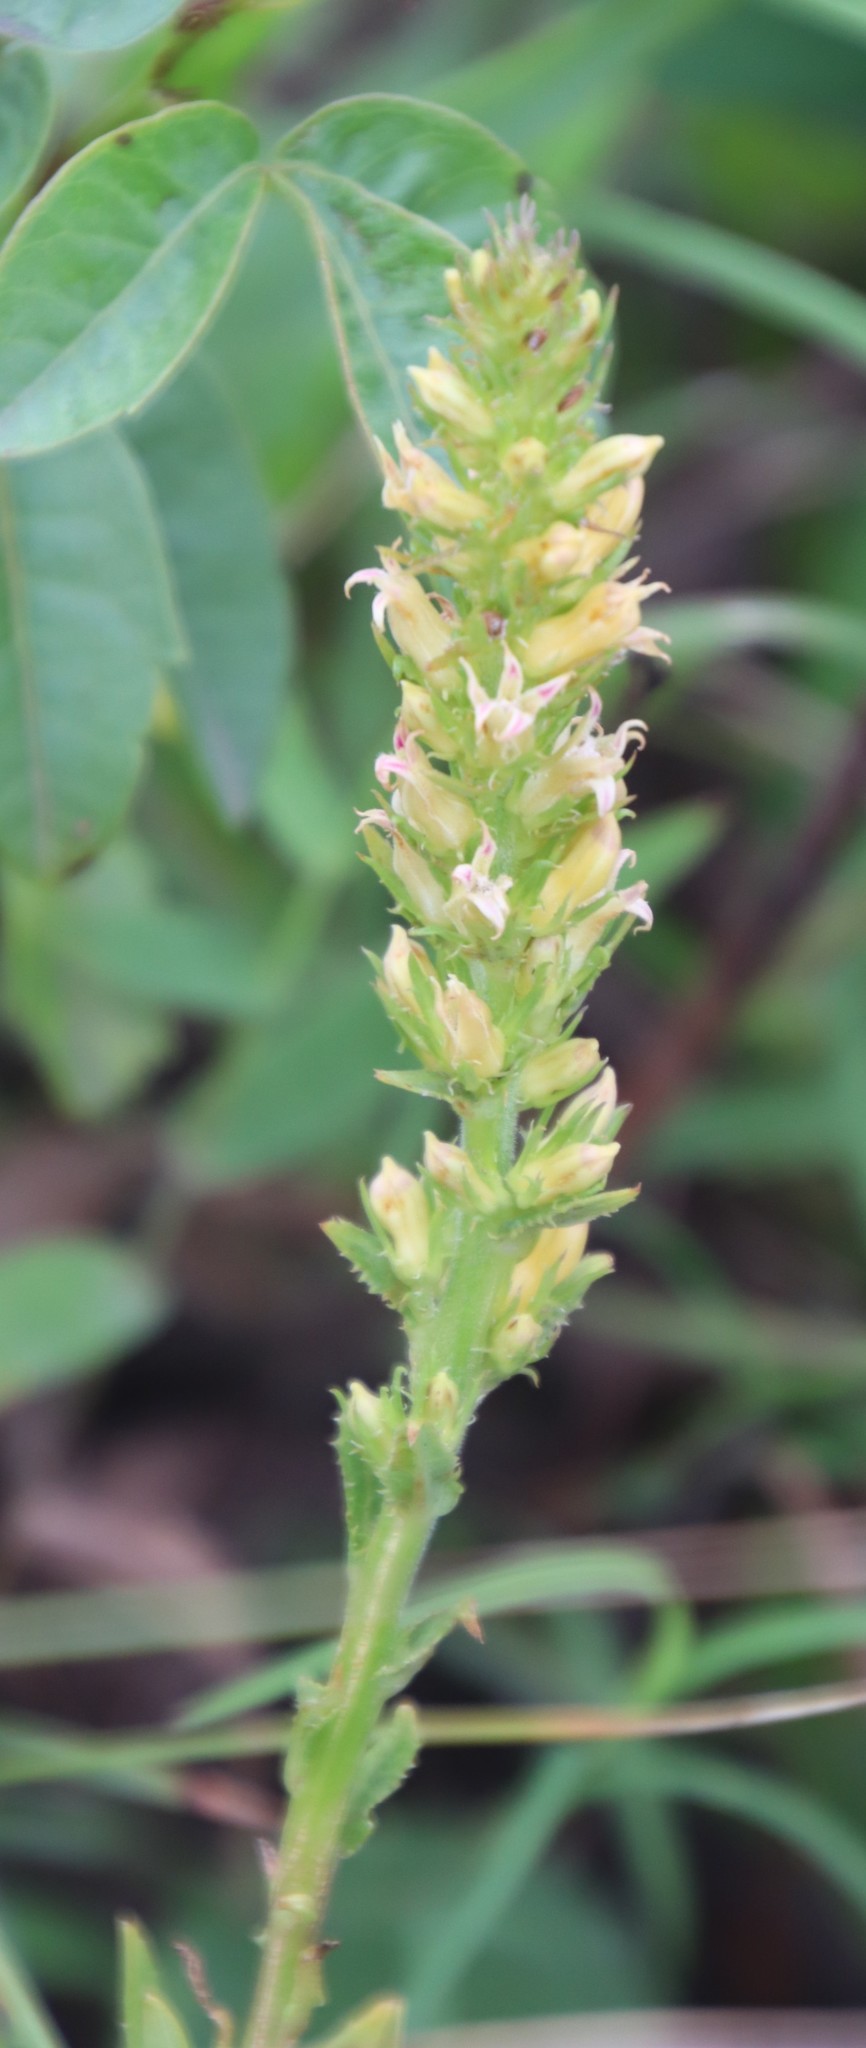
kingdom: Plantae
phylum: Tracheophyta
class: Magnoliopsida
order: Asterales
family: Campanulaceae
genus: Cyphia
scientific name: Cyphia elata
